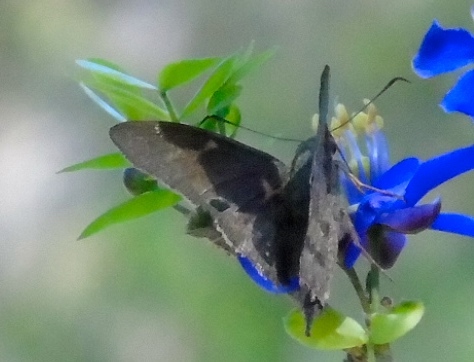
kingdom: Animalia
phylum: Arthropoda
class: Insecta
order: Lepidoptera
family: Hesperiidae
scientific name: Hesperiidae
